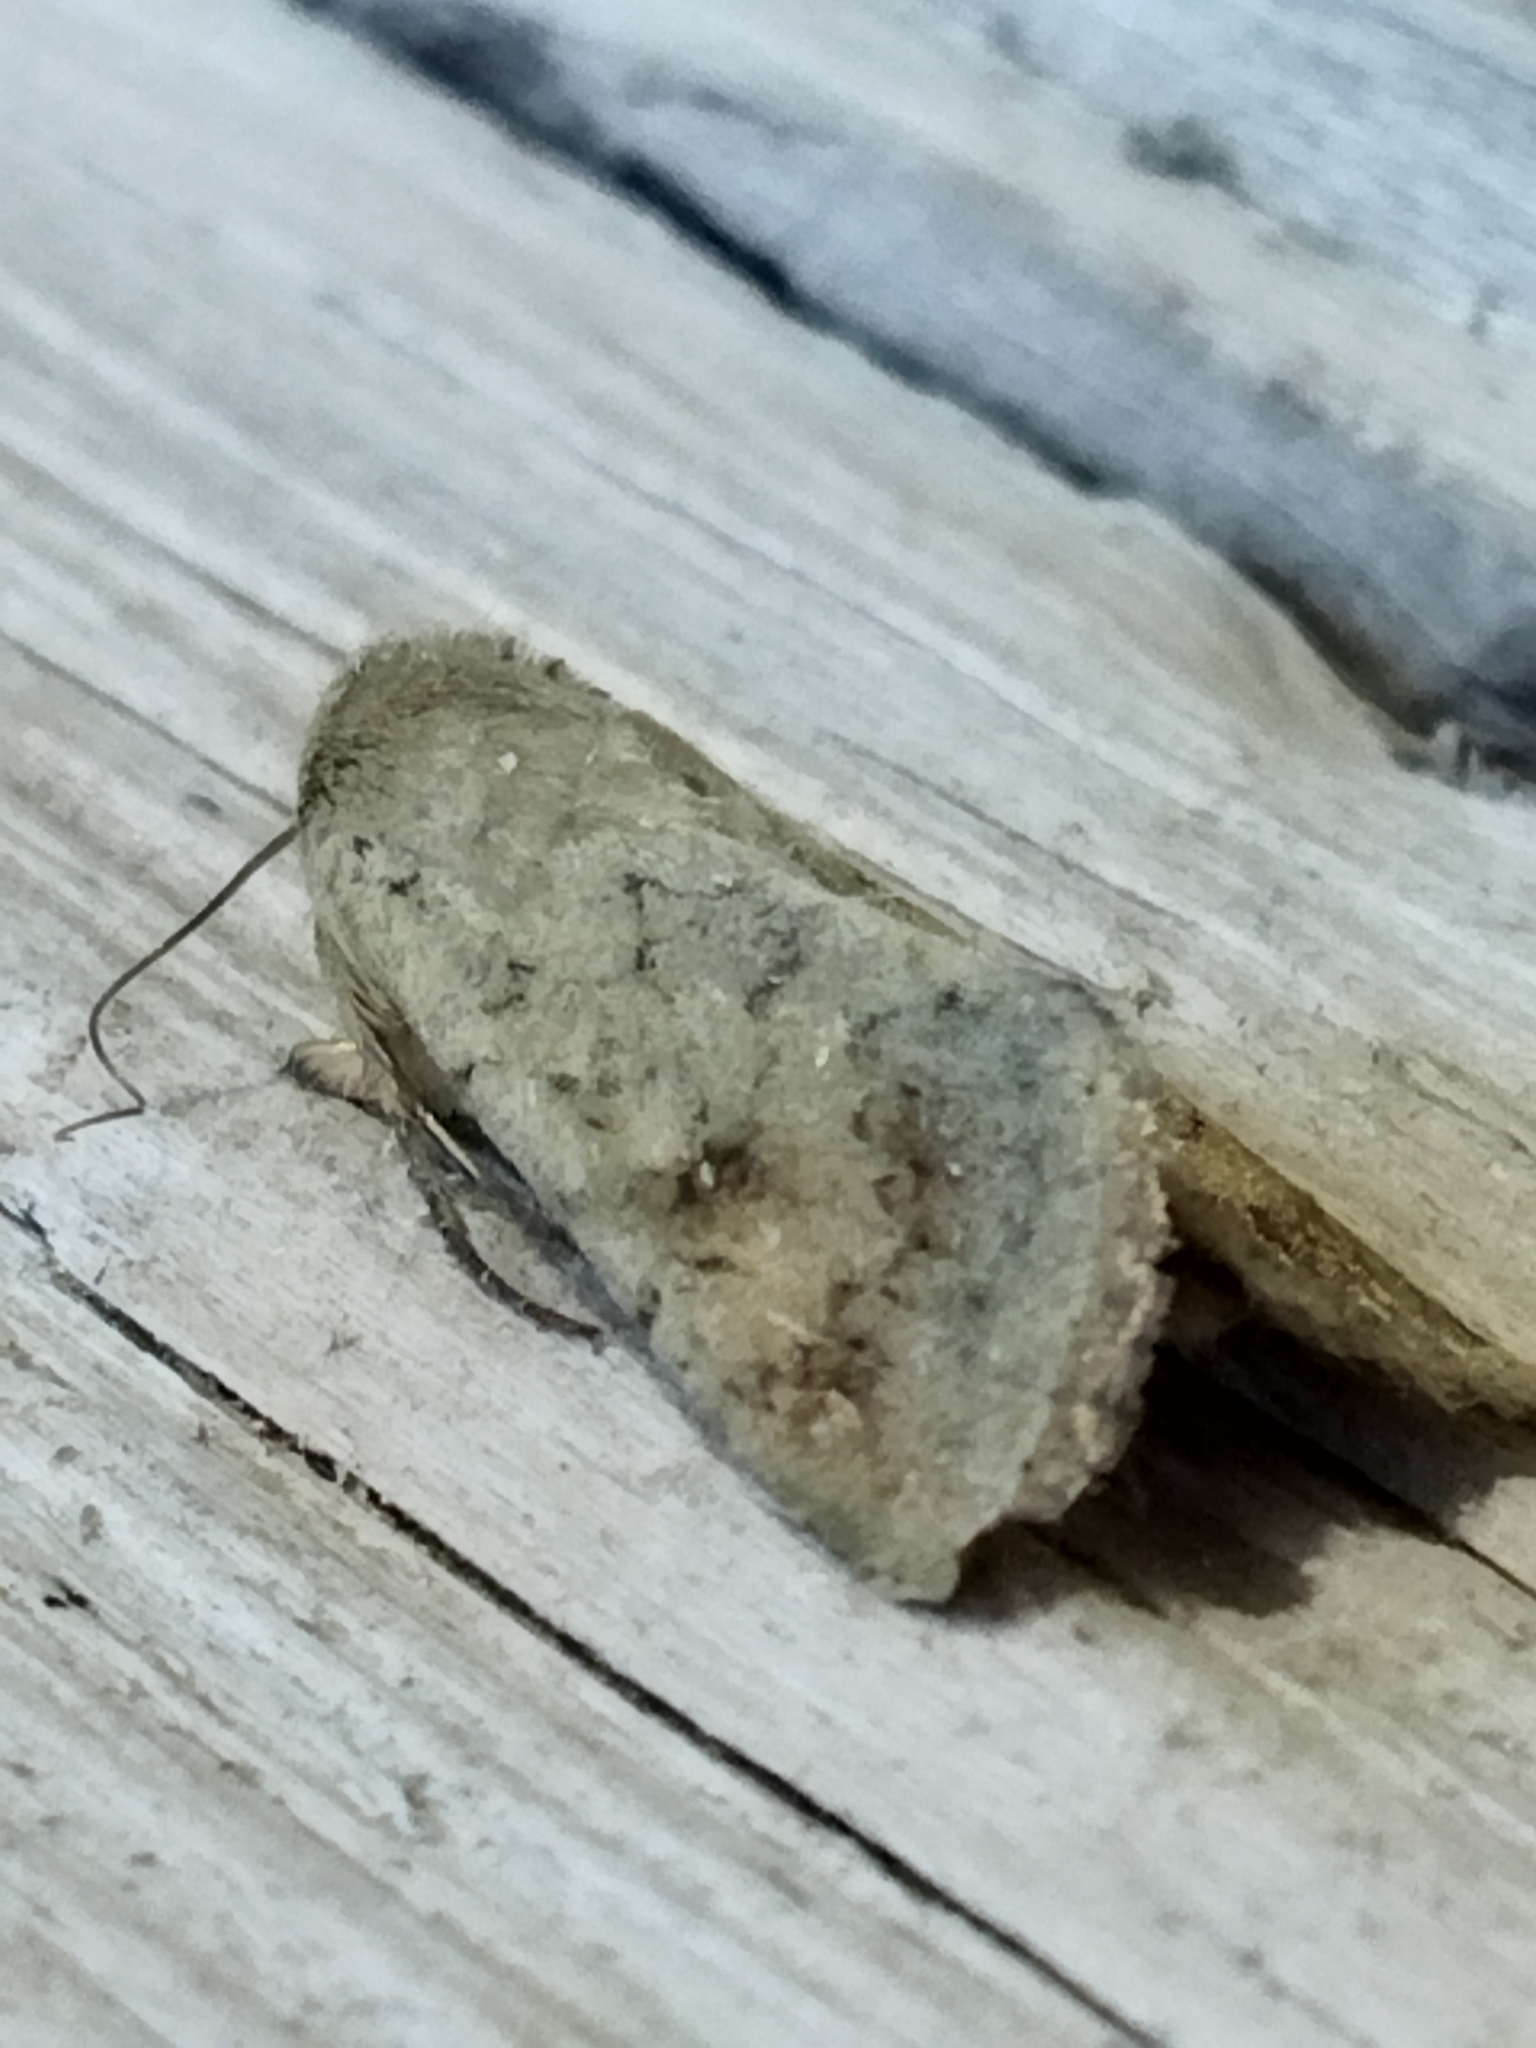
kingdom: Animalia
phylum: Arthropoda
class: Insecta
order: Lepidoptera
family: Noctuidae
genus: Helicoverpa
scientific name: Helicoverpa armigera
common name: Cotton bollworm
